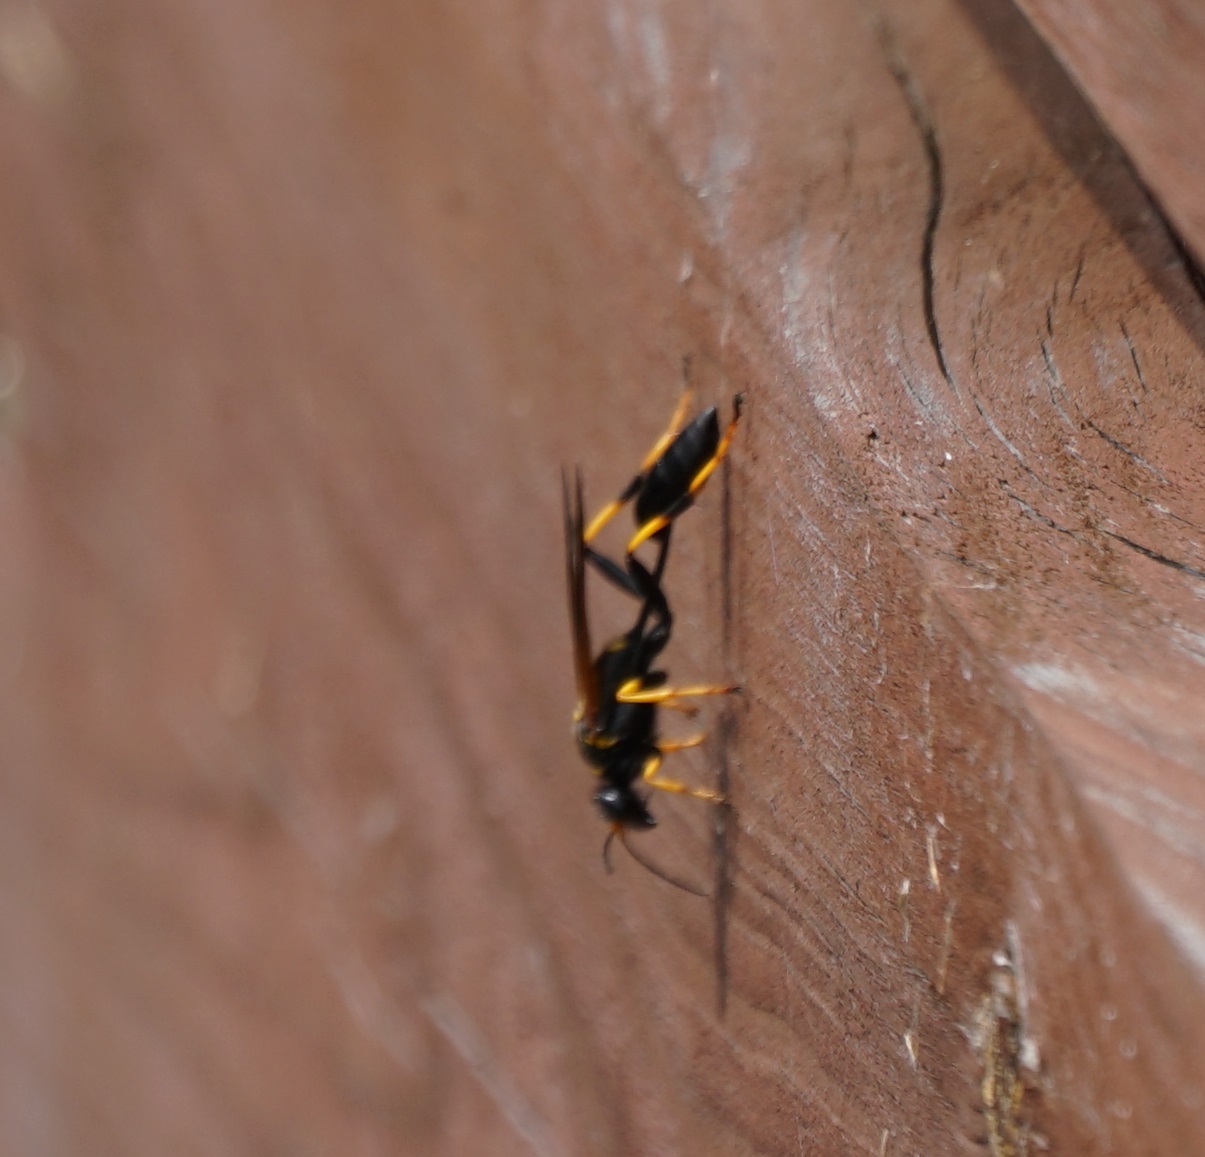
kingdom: Animalia
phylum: Arthropoda
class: Insecta
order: Hymenoptera
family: Sphecidae
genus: Sceliphron
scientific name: Sceliphron caementarium
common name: Mud dauber
